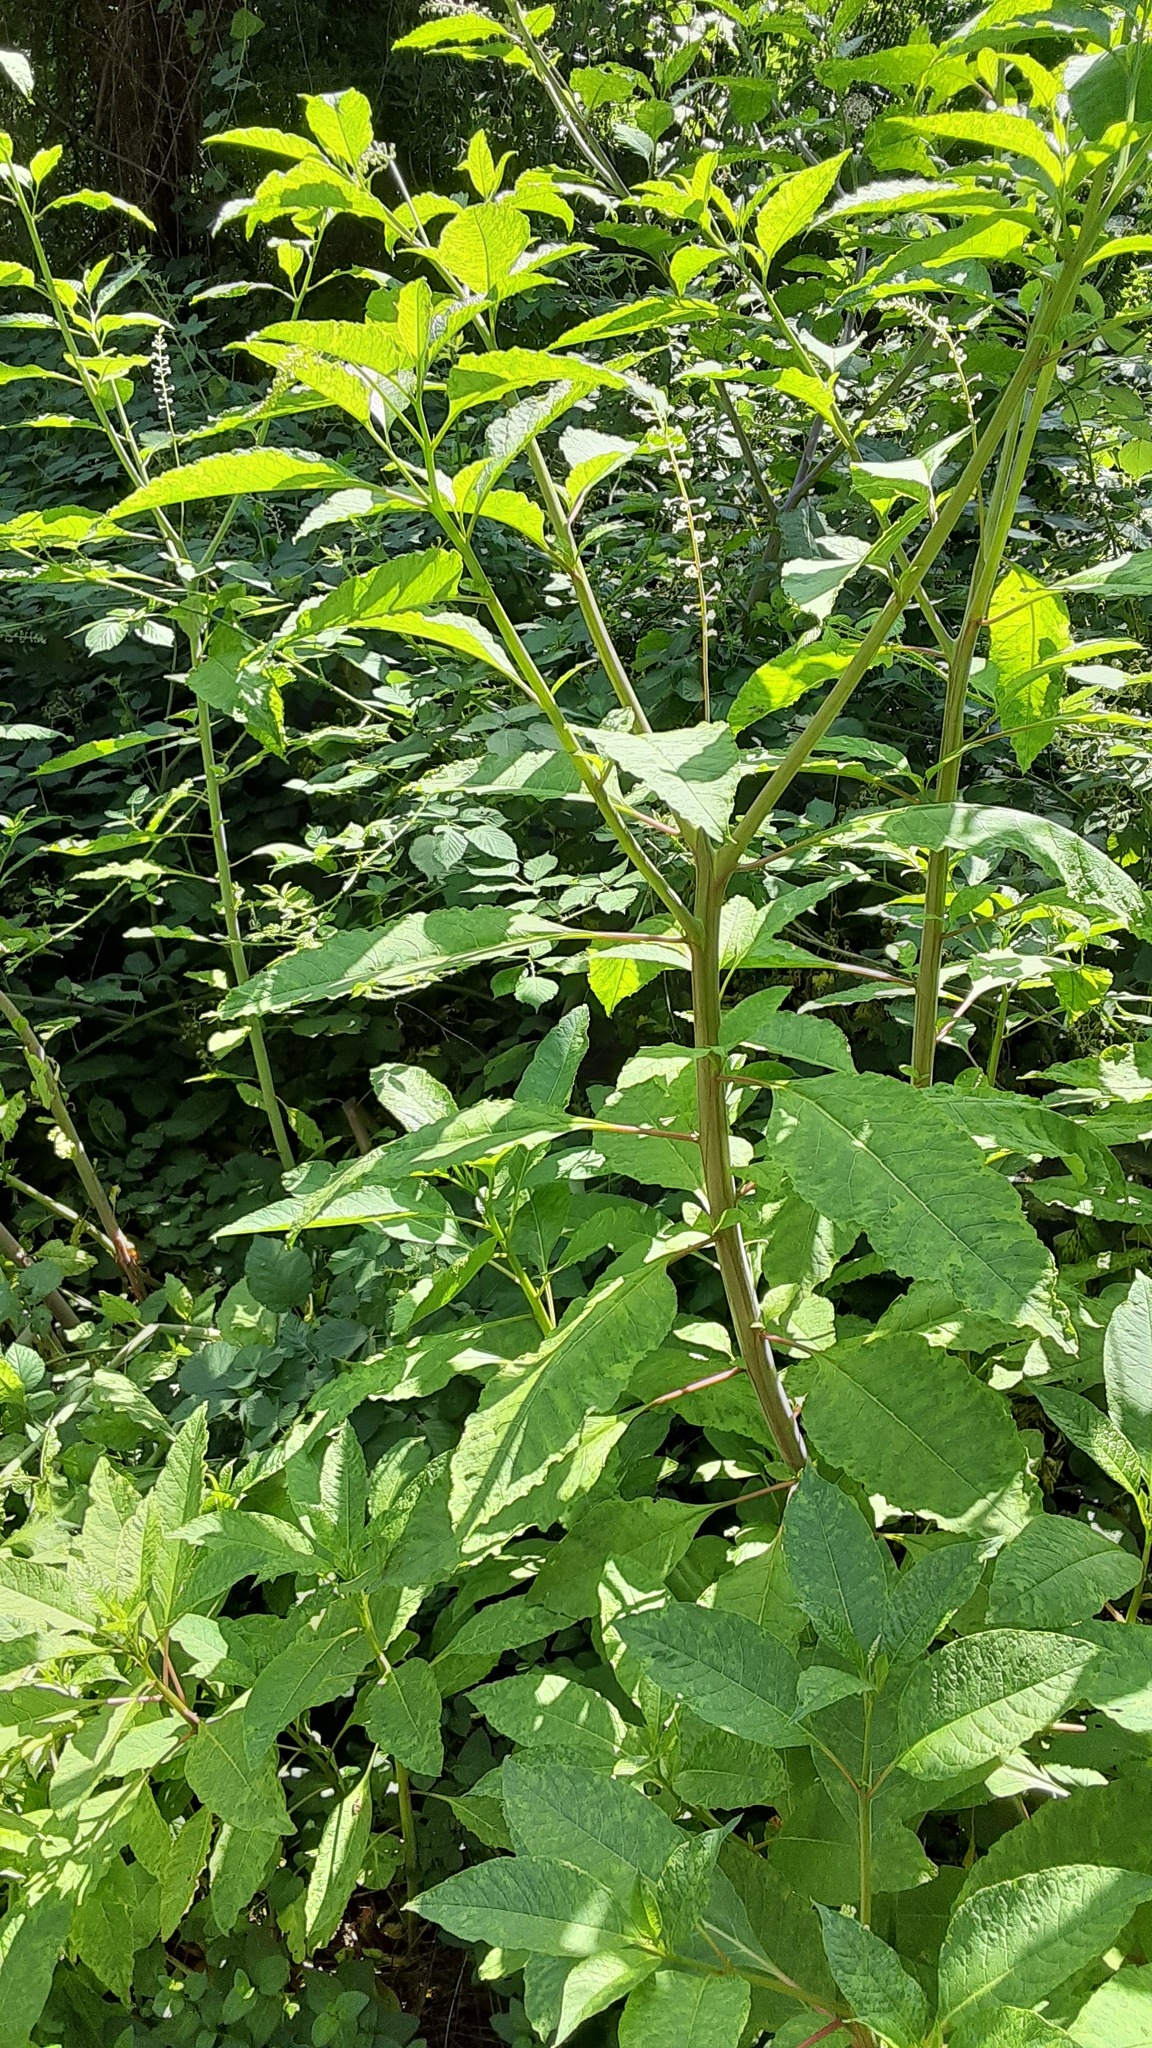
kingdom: Plantae
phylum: Tracheophyta
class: Magnoliopsida
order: Caryophyllales
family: Phytolaccaceae
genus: Phytolacca
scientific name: Phytolacca americana
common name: American pokeweed
